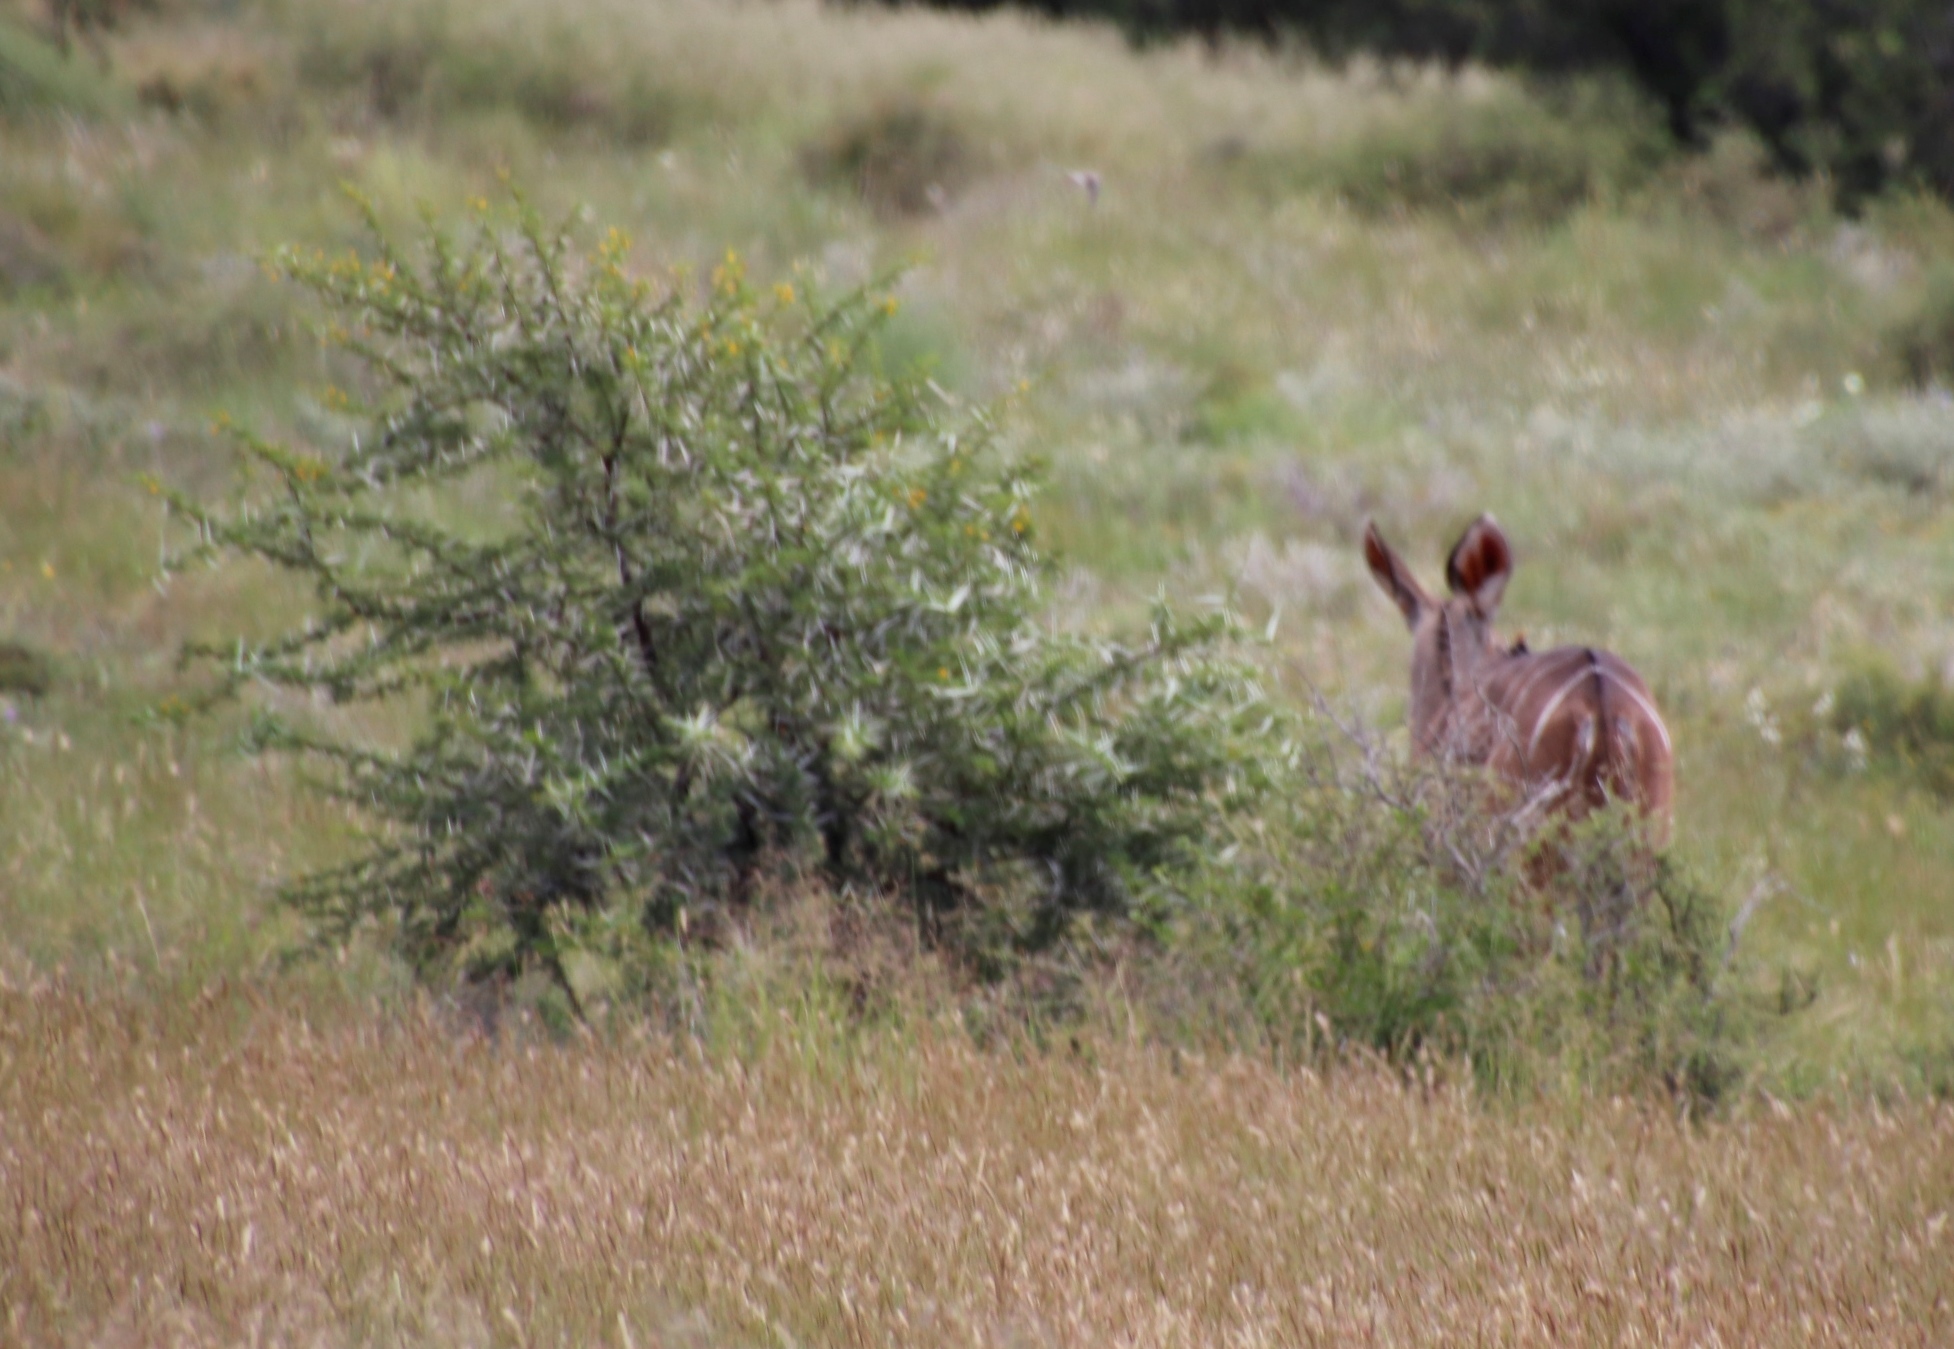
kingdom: Plantae
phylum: Tracheophyta
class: Magnoliopsida
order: Fabales
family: Fabaceae
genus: Vachellia
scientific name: Vachellia karroo
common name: Sweet thorn
